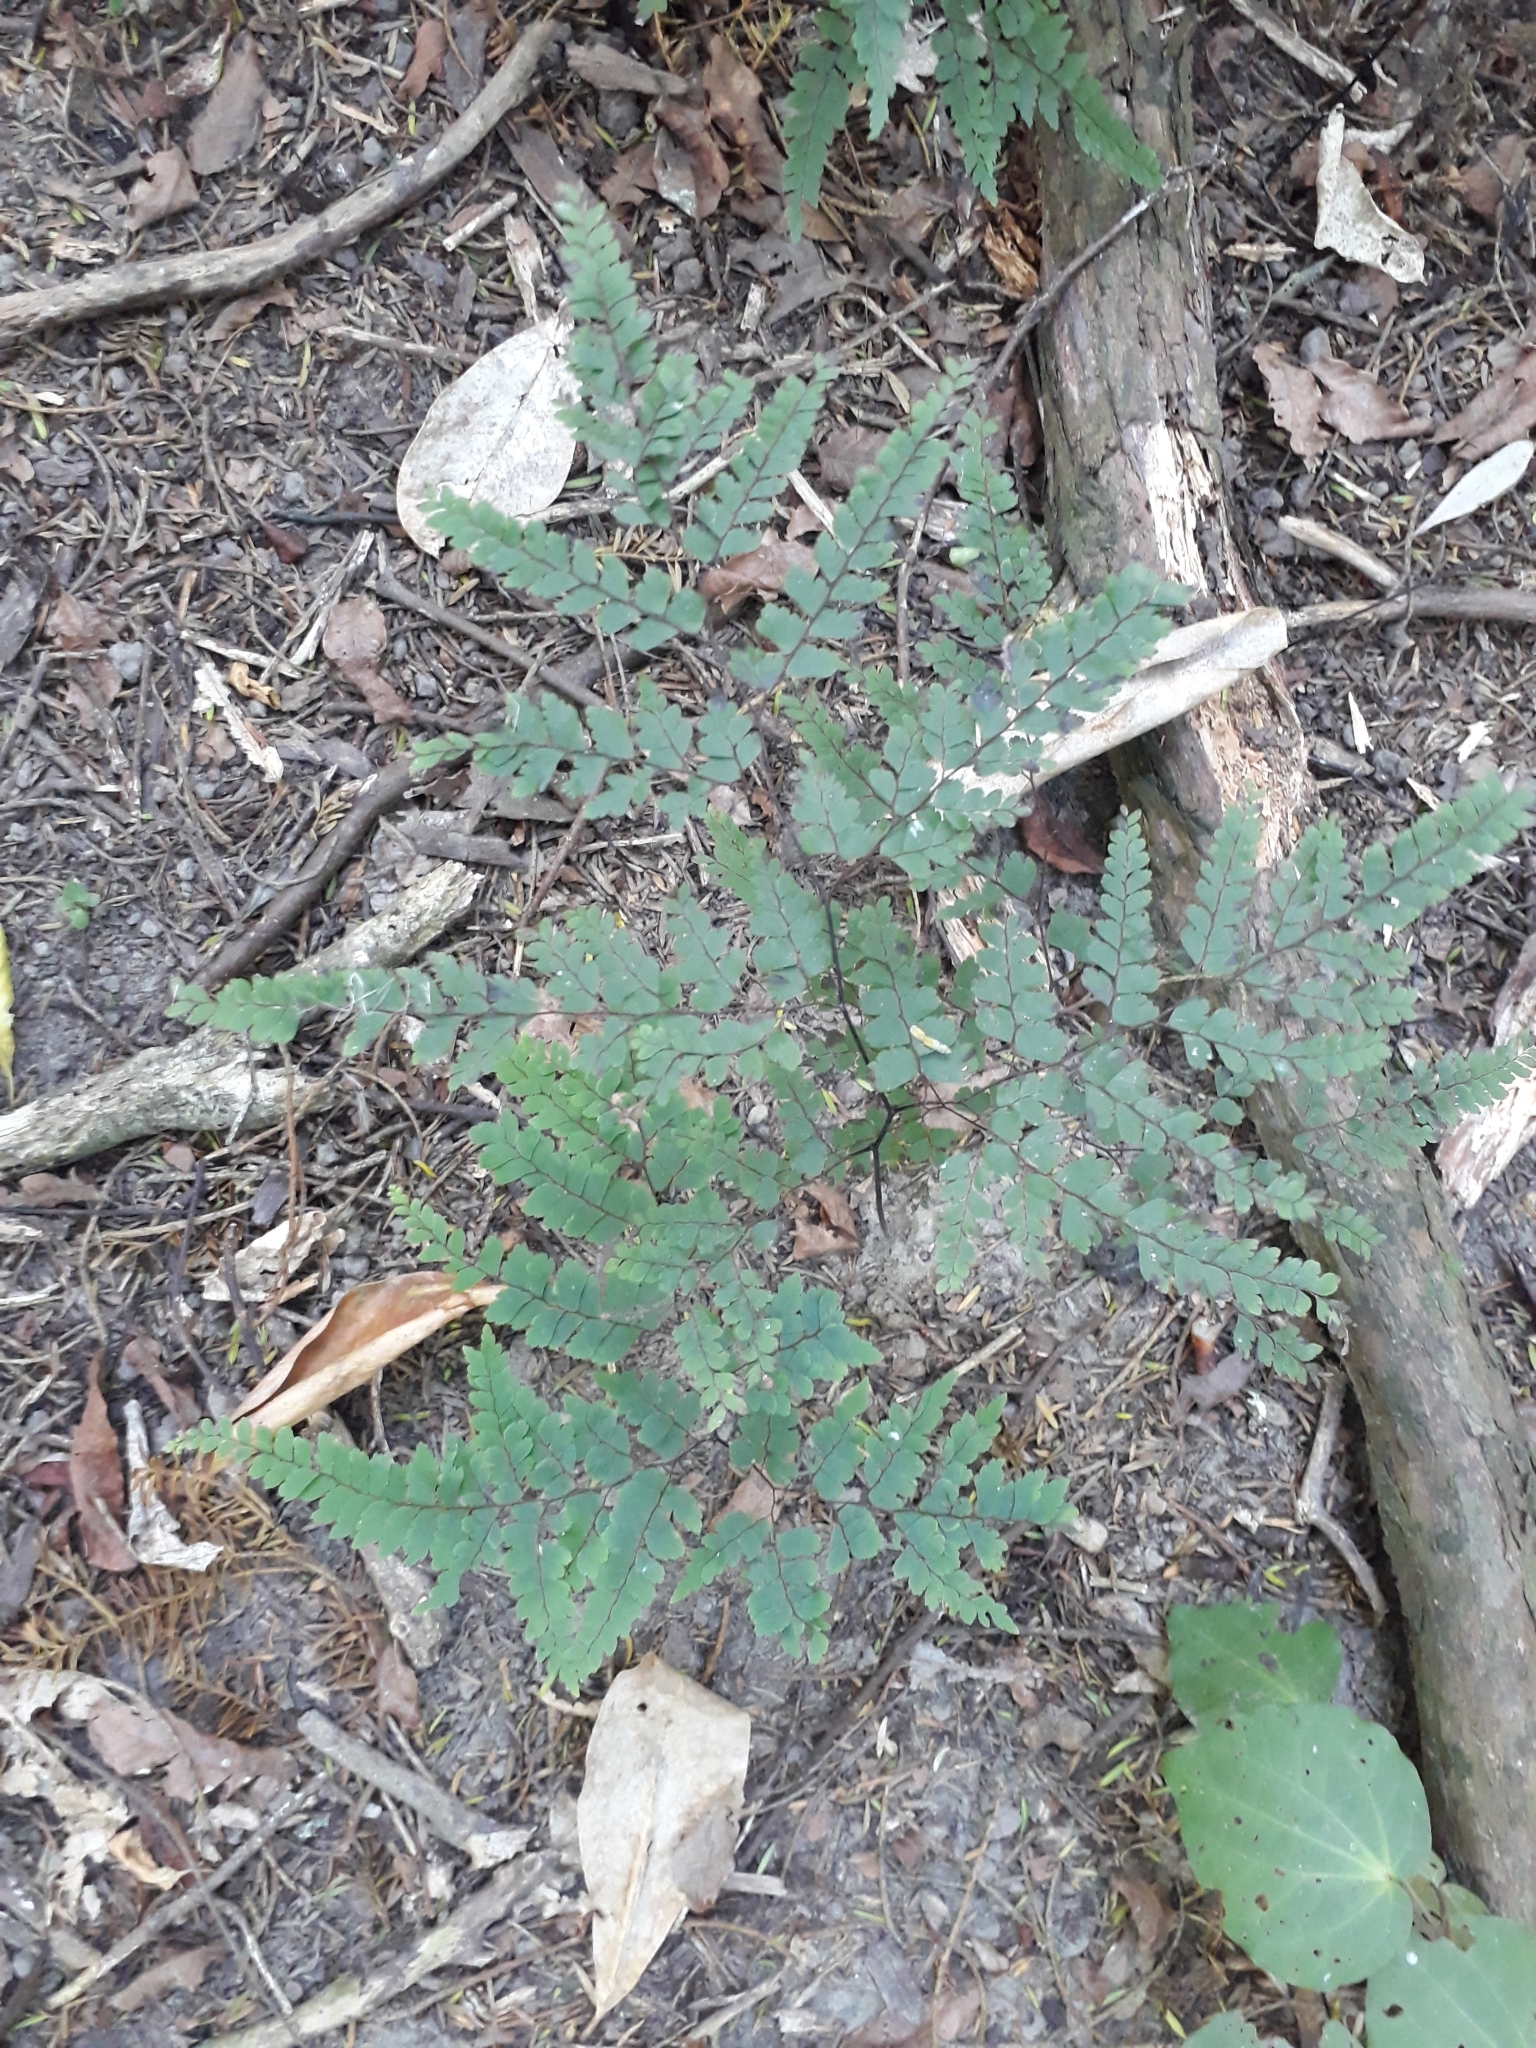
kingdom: Plantae
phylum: Tracheophyta
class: Polypodiopsida
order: Polypodiales
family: Pteridaceae
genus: Adiantum
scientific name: Adiantum formosum
